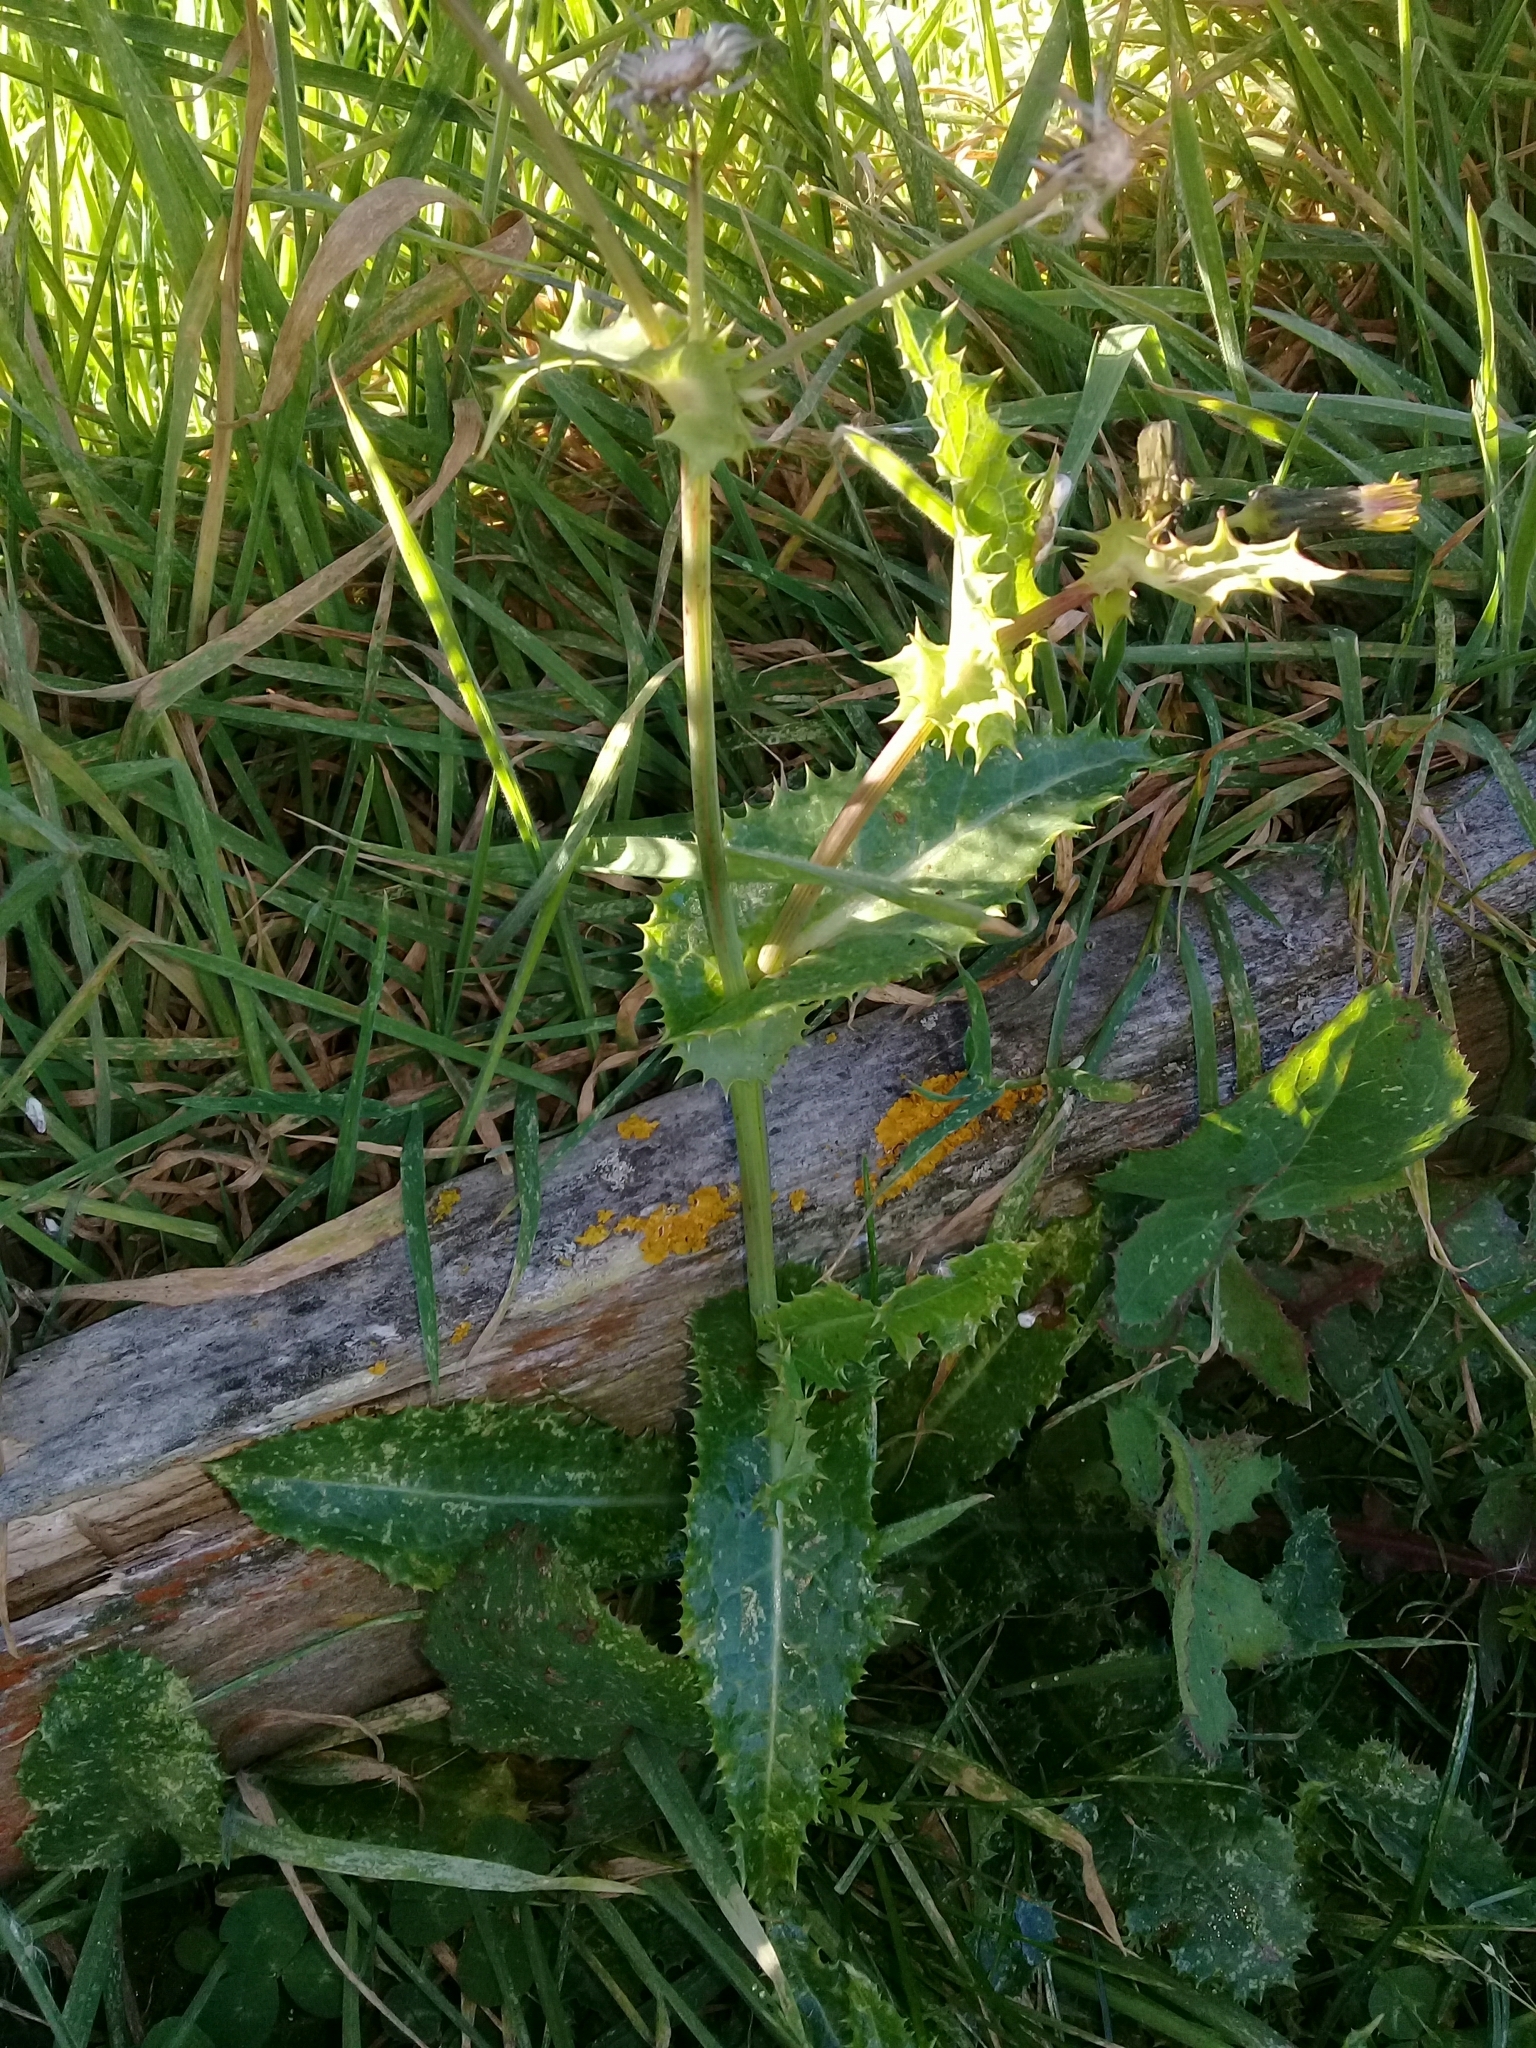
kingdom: Plantae
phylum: Tracheophyta
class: Magnoliopsida
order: Asterales
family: Asteraceae
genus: Sonchus
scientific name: Sonchus asper
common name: Prickly sow-thistle
